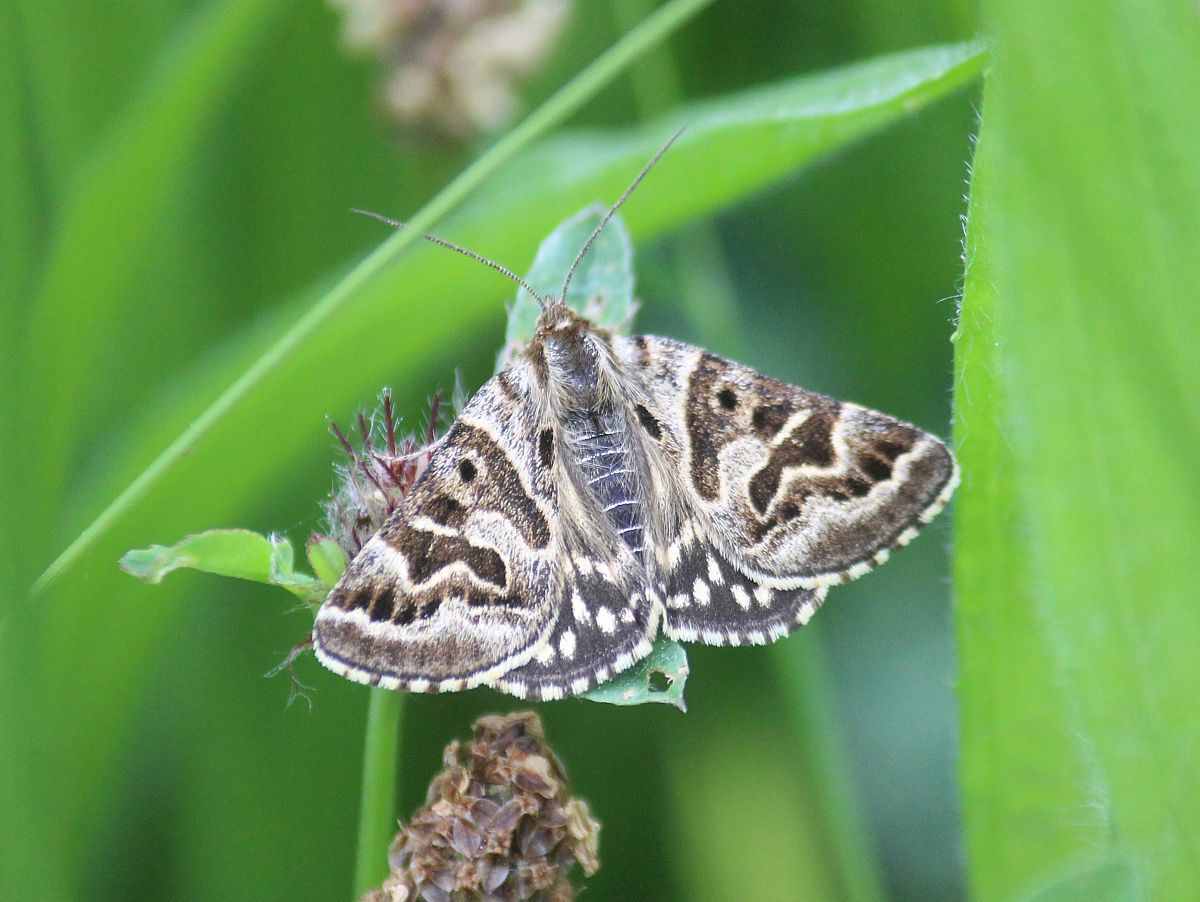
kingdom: Animalia
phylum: Arthropoda
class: Insecta
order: Lepidoptera
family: Erebidae
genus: Callistege
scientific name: Callistege mi
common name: Mother shipton
